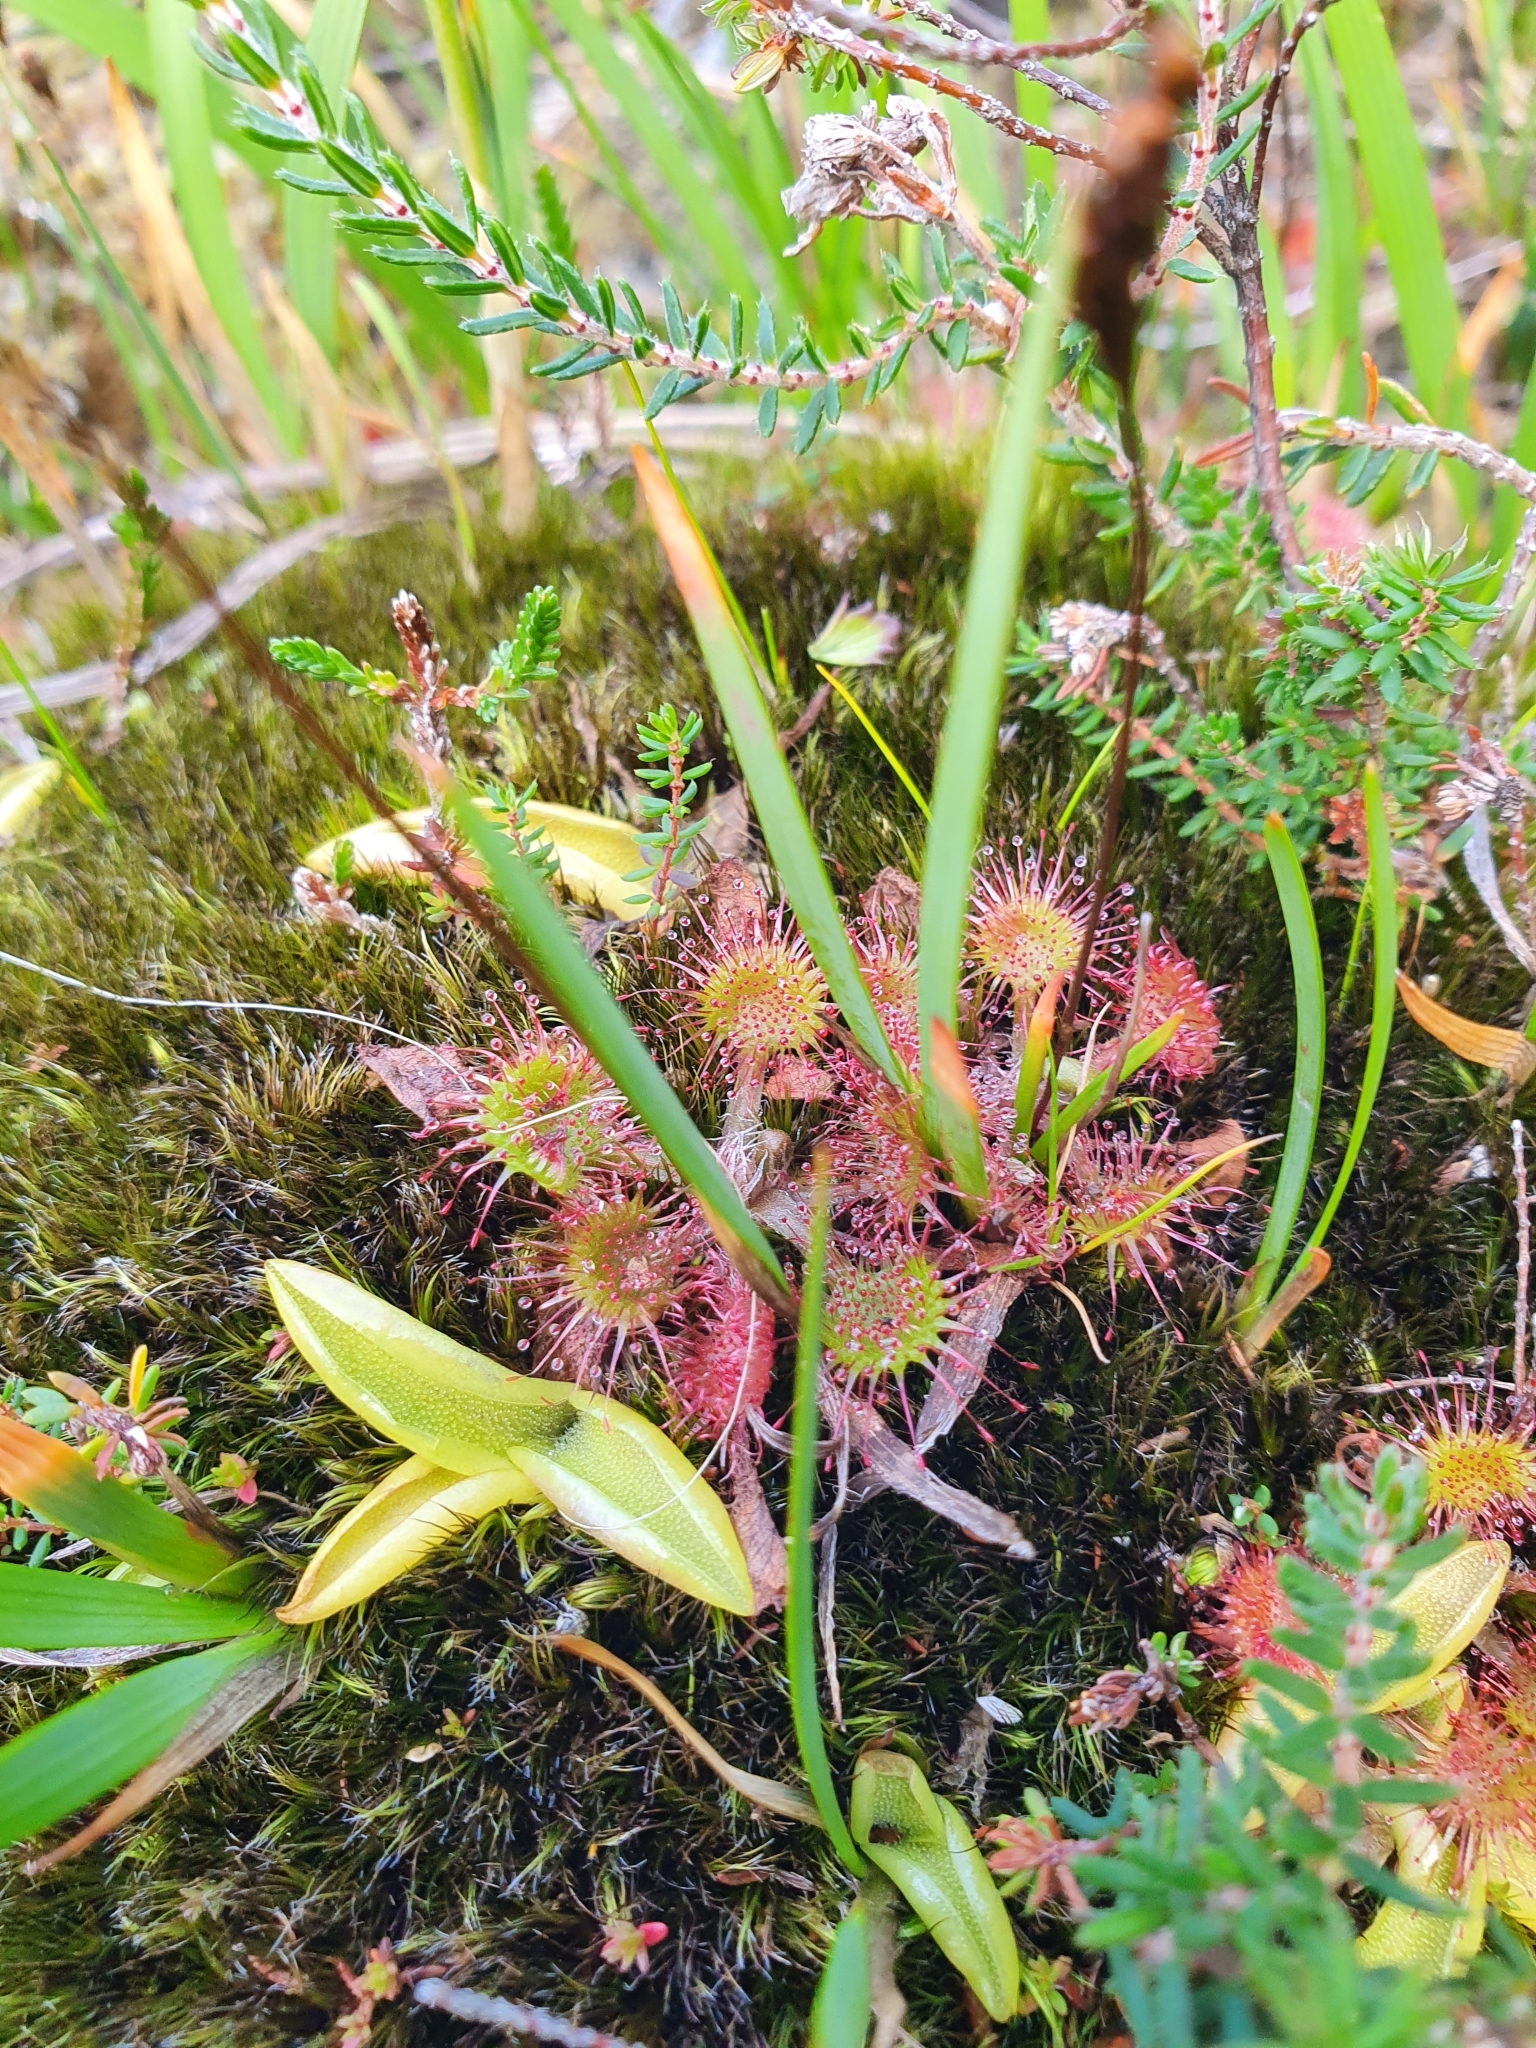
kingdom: Plantae
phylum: Tracheophyta
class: Magnoliopsida
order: Caryophyllales
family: Droseraceae
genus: Drosera
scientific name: Drosera rotundifolia
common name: Round-leaved sundew
